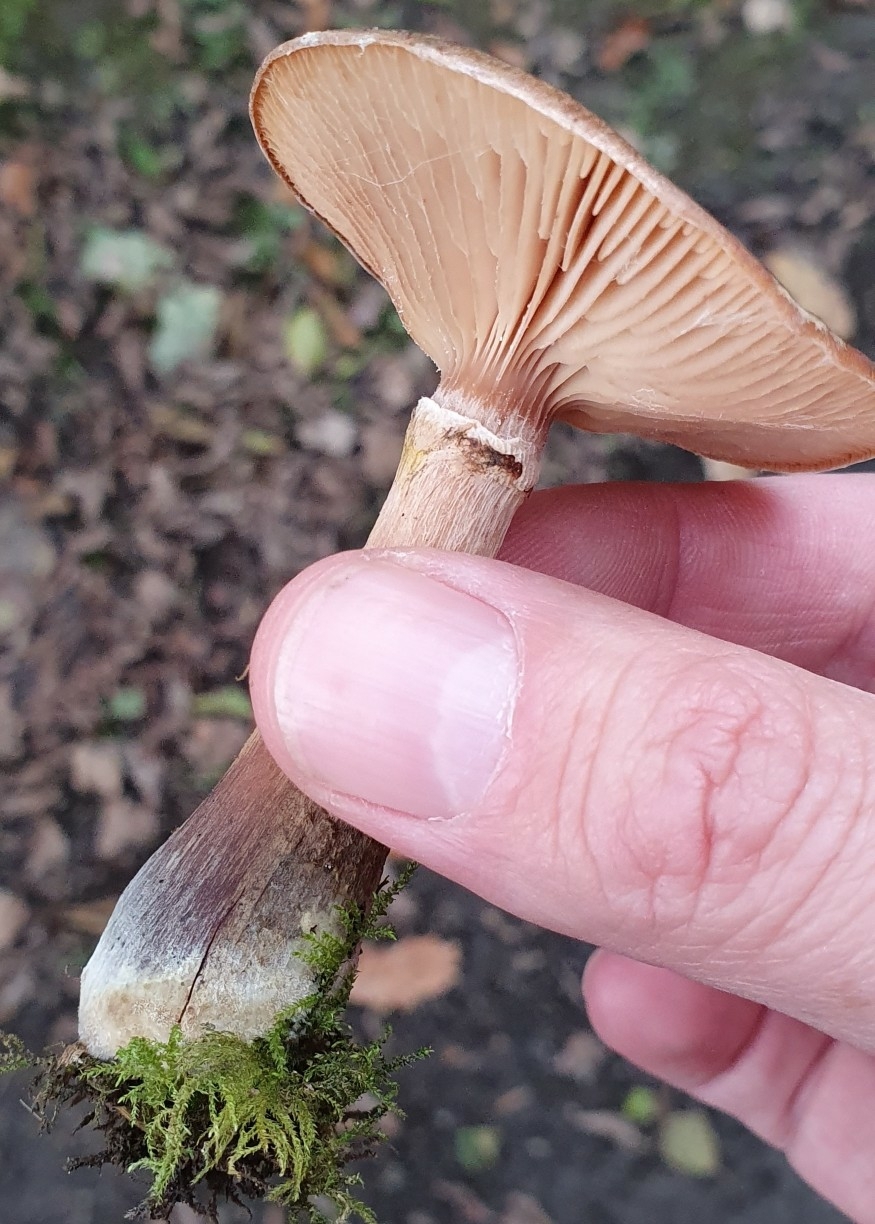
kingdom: Fungi
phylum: Basidiomycota
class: Agaricomycetes
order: Agaricales
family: Physalacriaceae
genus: Armillaria
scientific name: Armillaria gallica
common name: Bulbous honey fungus
